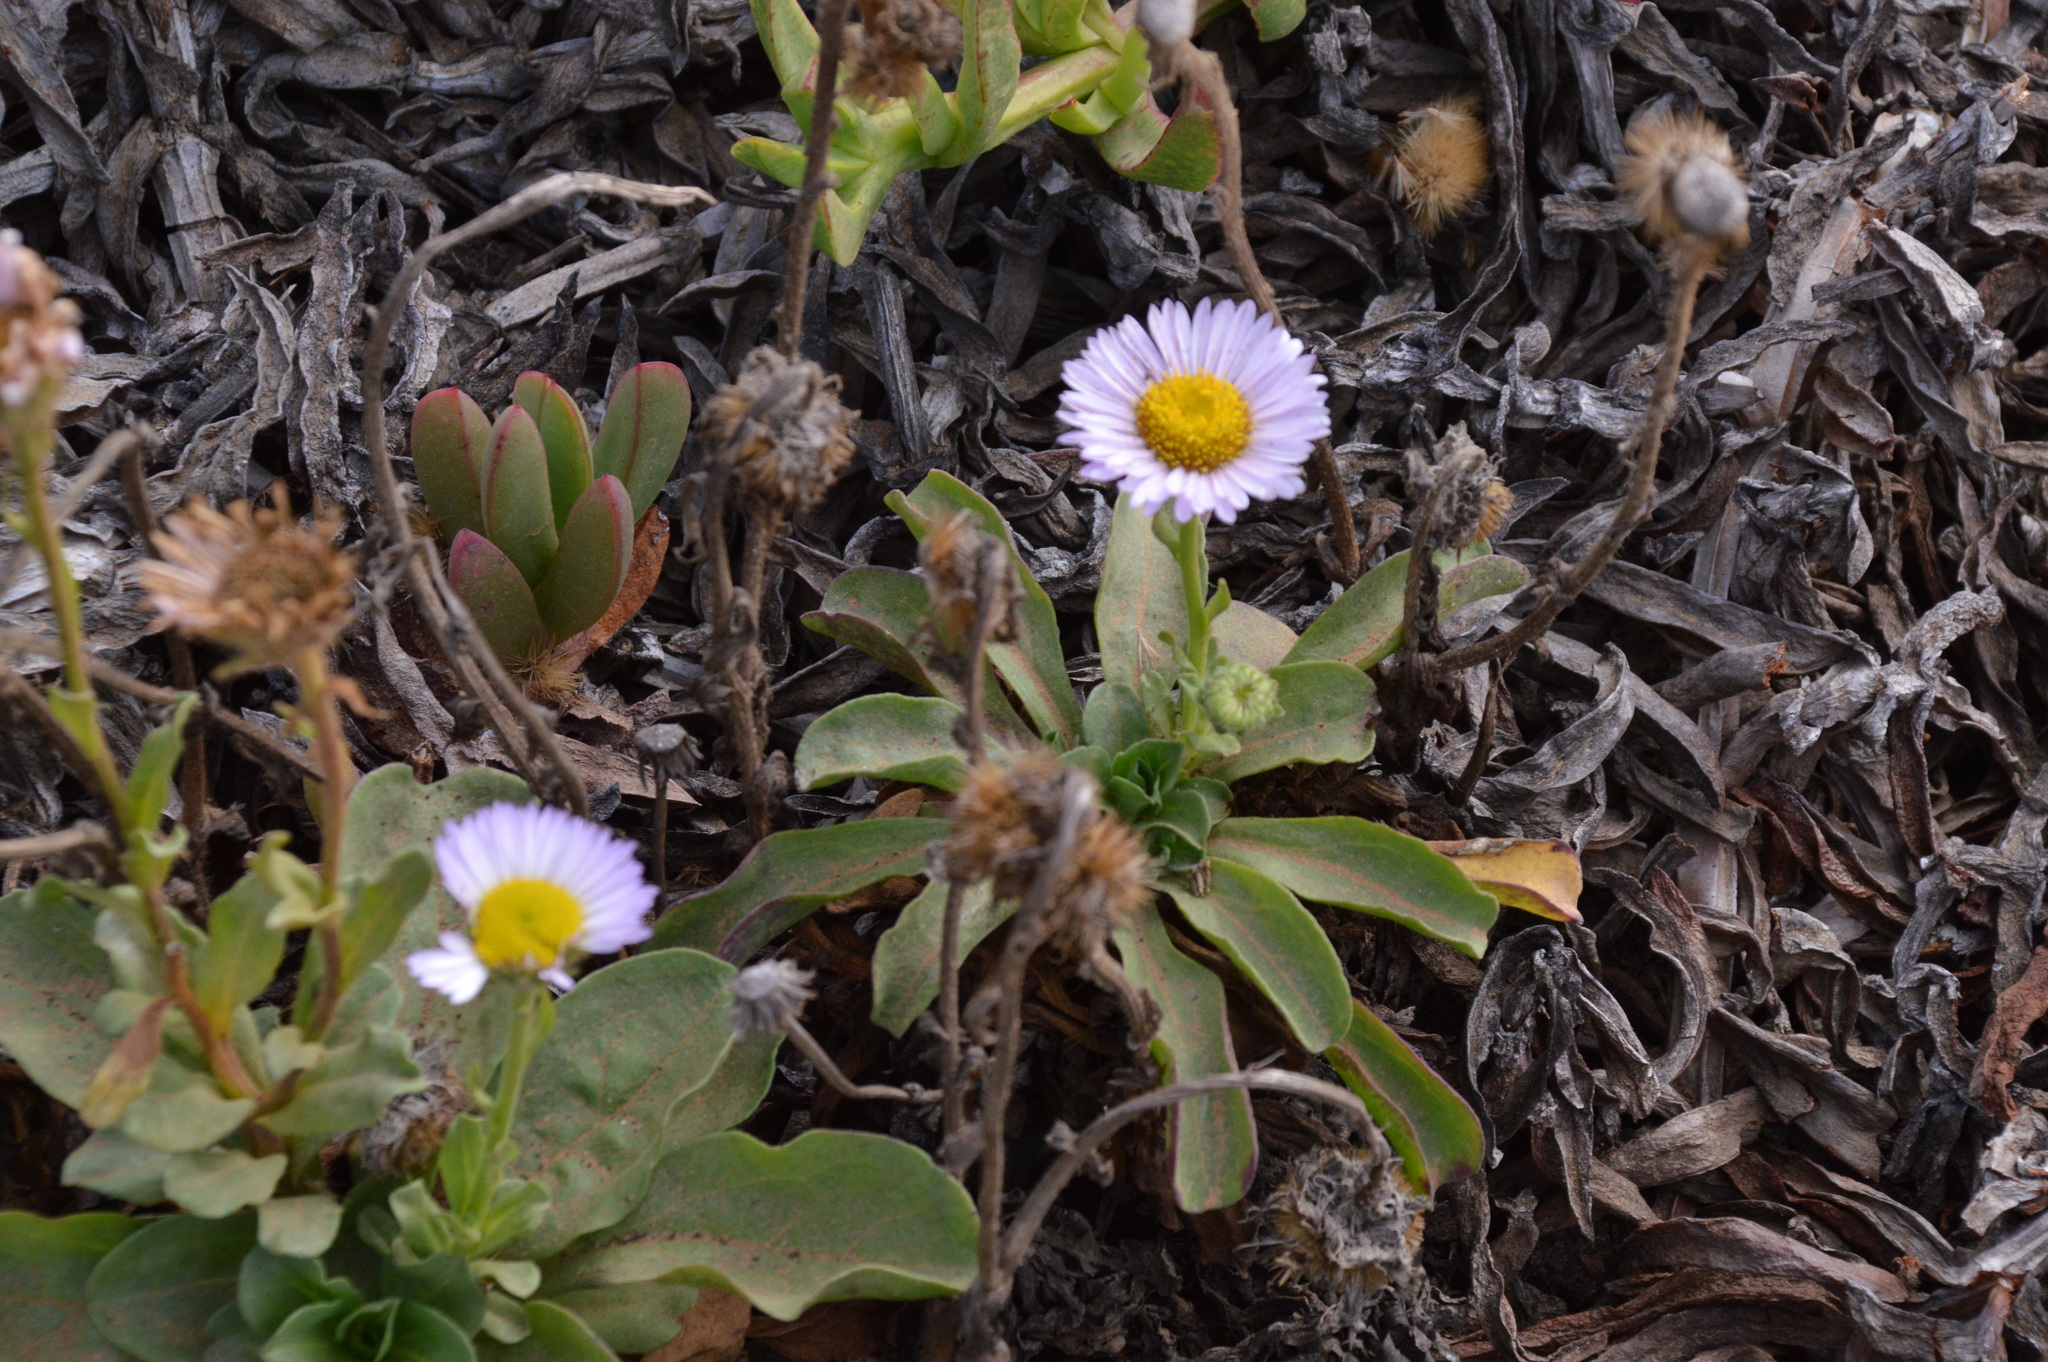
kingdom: Plantae
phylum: Tracheophyta
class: Magnoliopsida
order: Asterales
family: Asteraceae
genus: Erigeron
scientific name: Erigeron glaucus
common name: Seaside daisy
